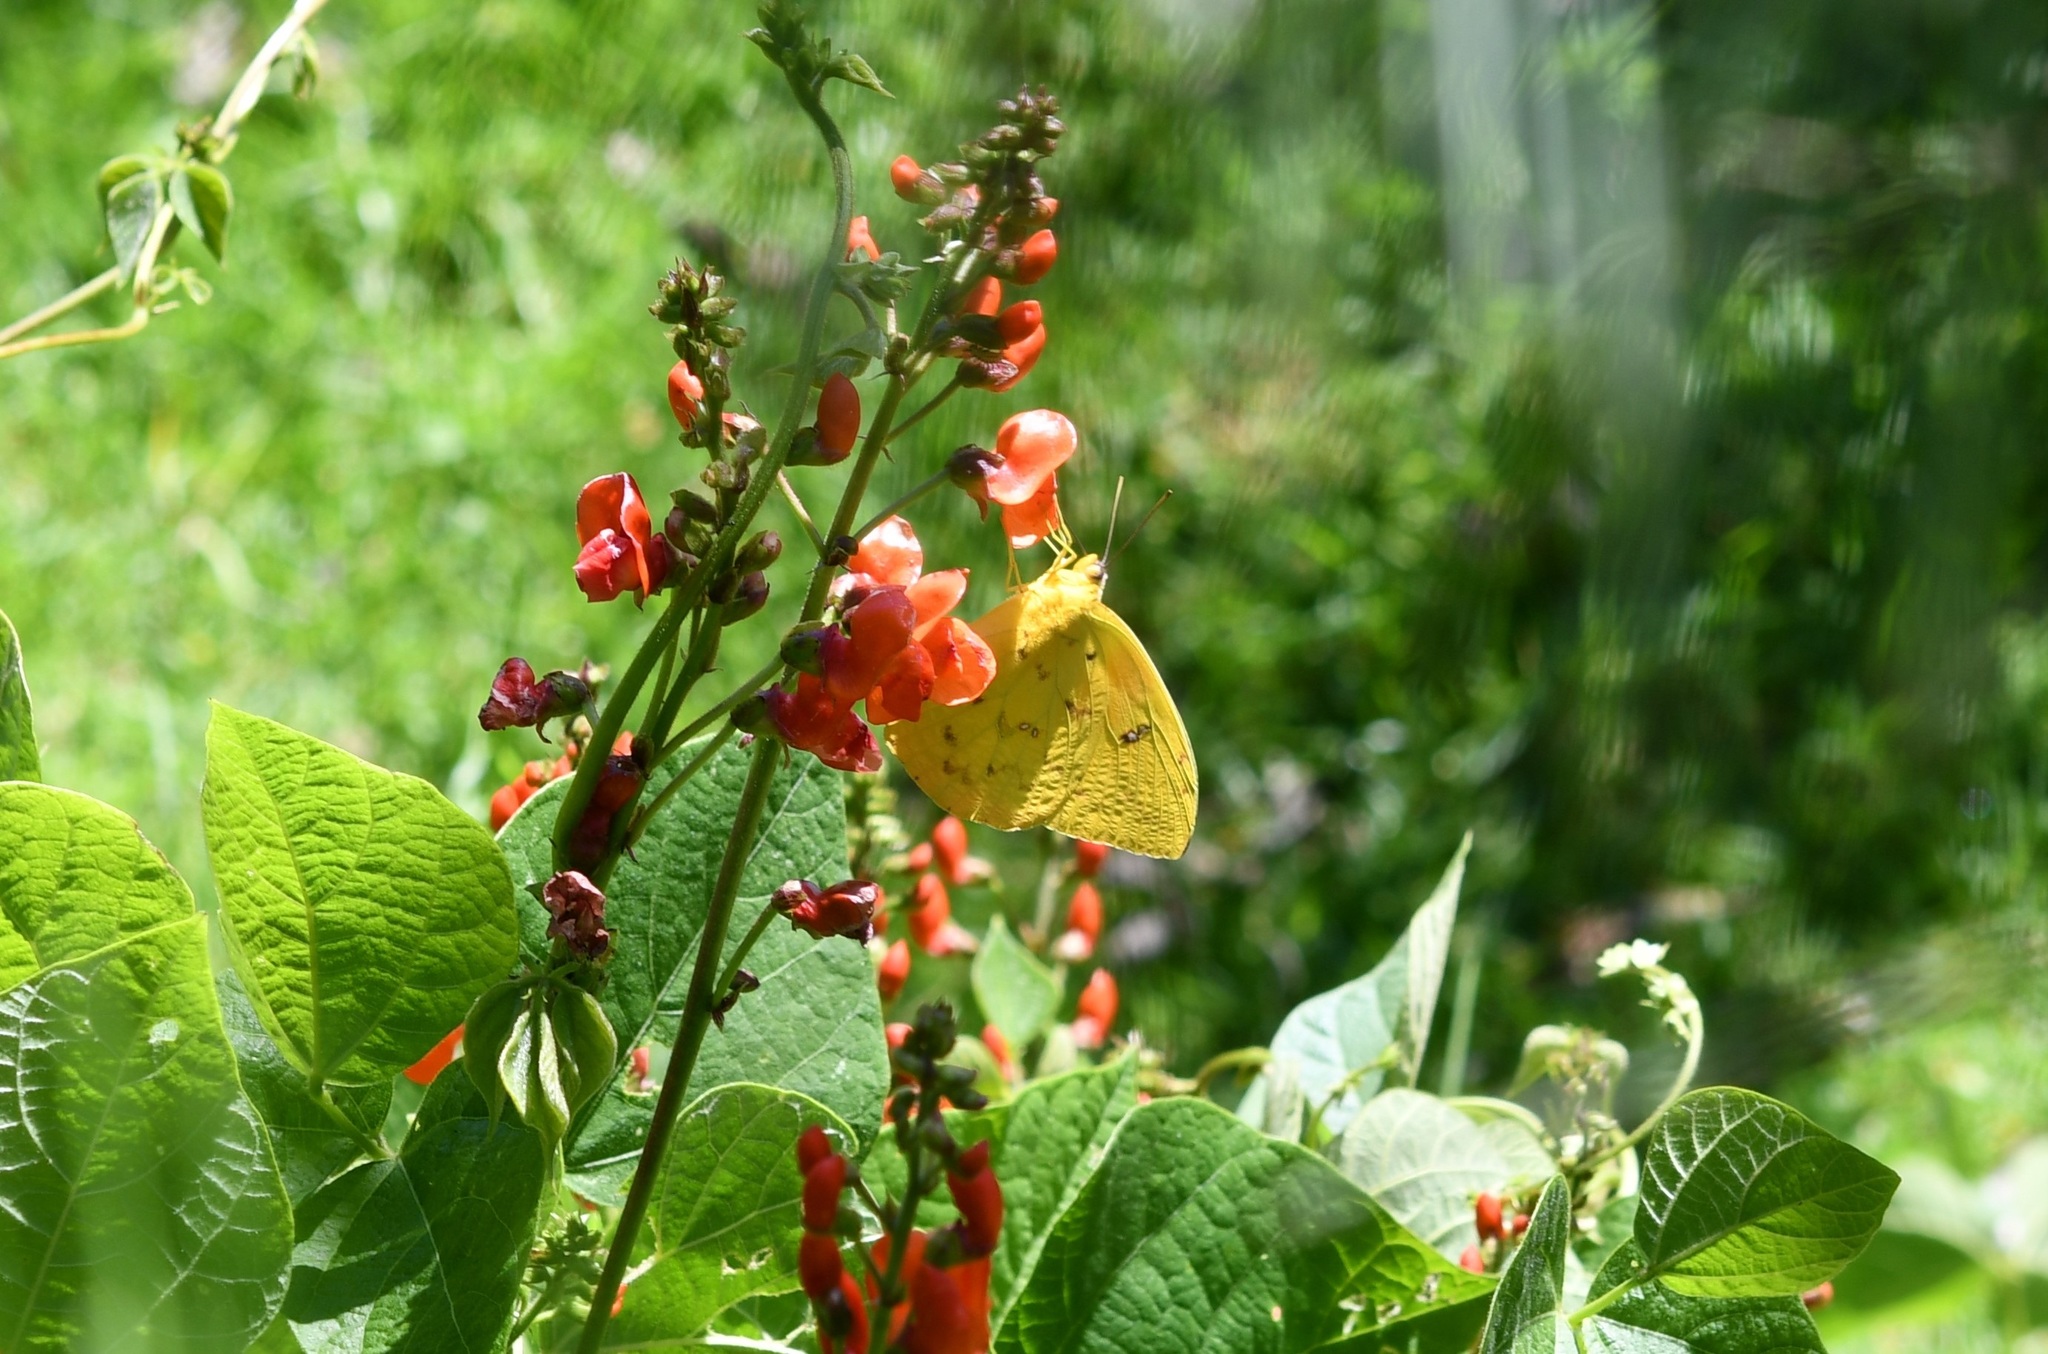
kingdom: Animalia
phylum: Arthropoda
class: Insecta
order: Lepidoptera
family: Pieridae
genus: Phoebis
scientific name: Phoebis philea
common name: Orange-barred giant sulphur
